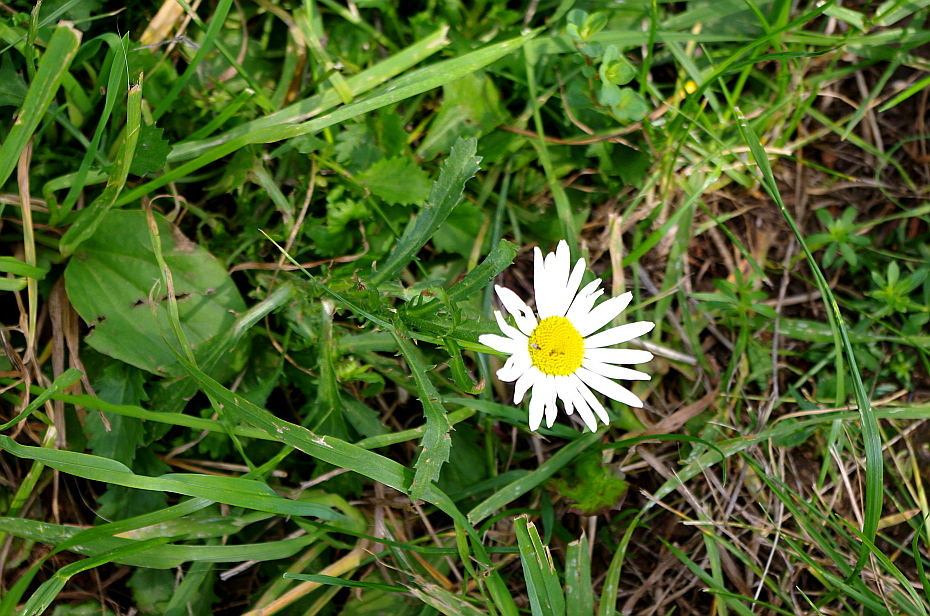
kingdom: Plantae
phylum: Tracheophyta
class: Magnoliopsida
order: Asterales
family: Asteraceae
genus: Leucanthemum
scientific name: Leucanthemum vulgare
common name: Oxeye daisy
